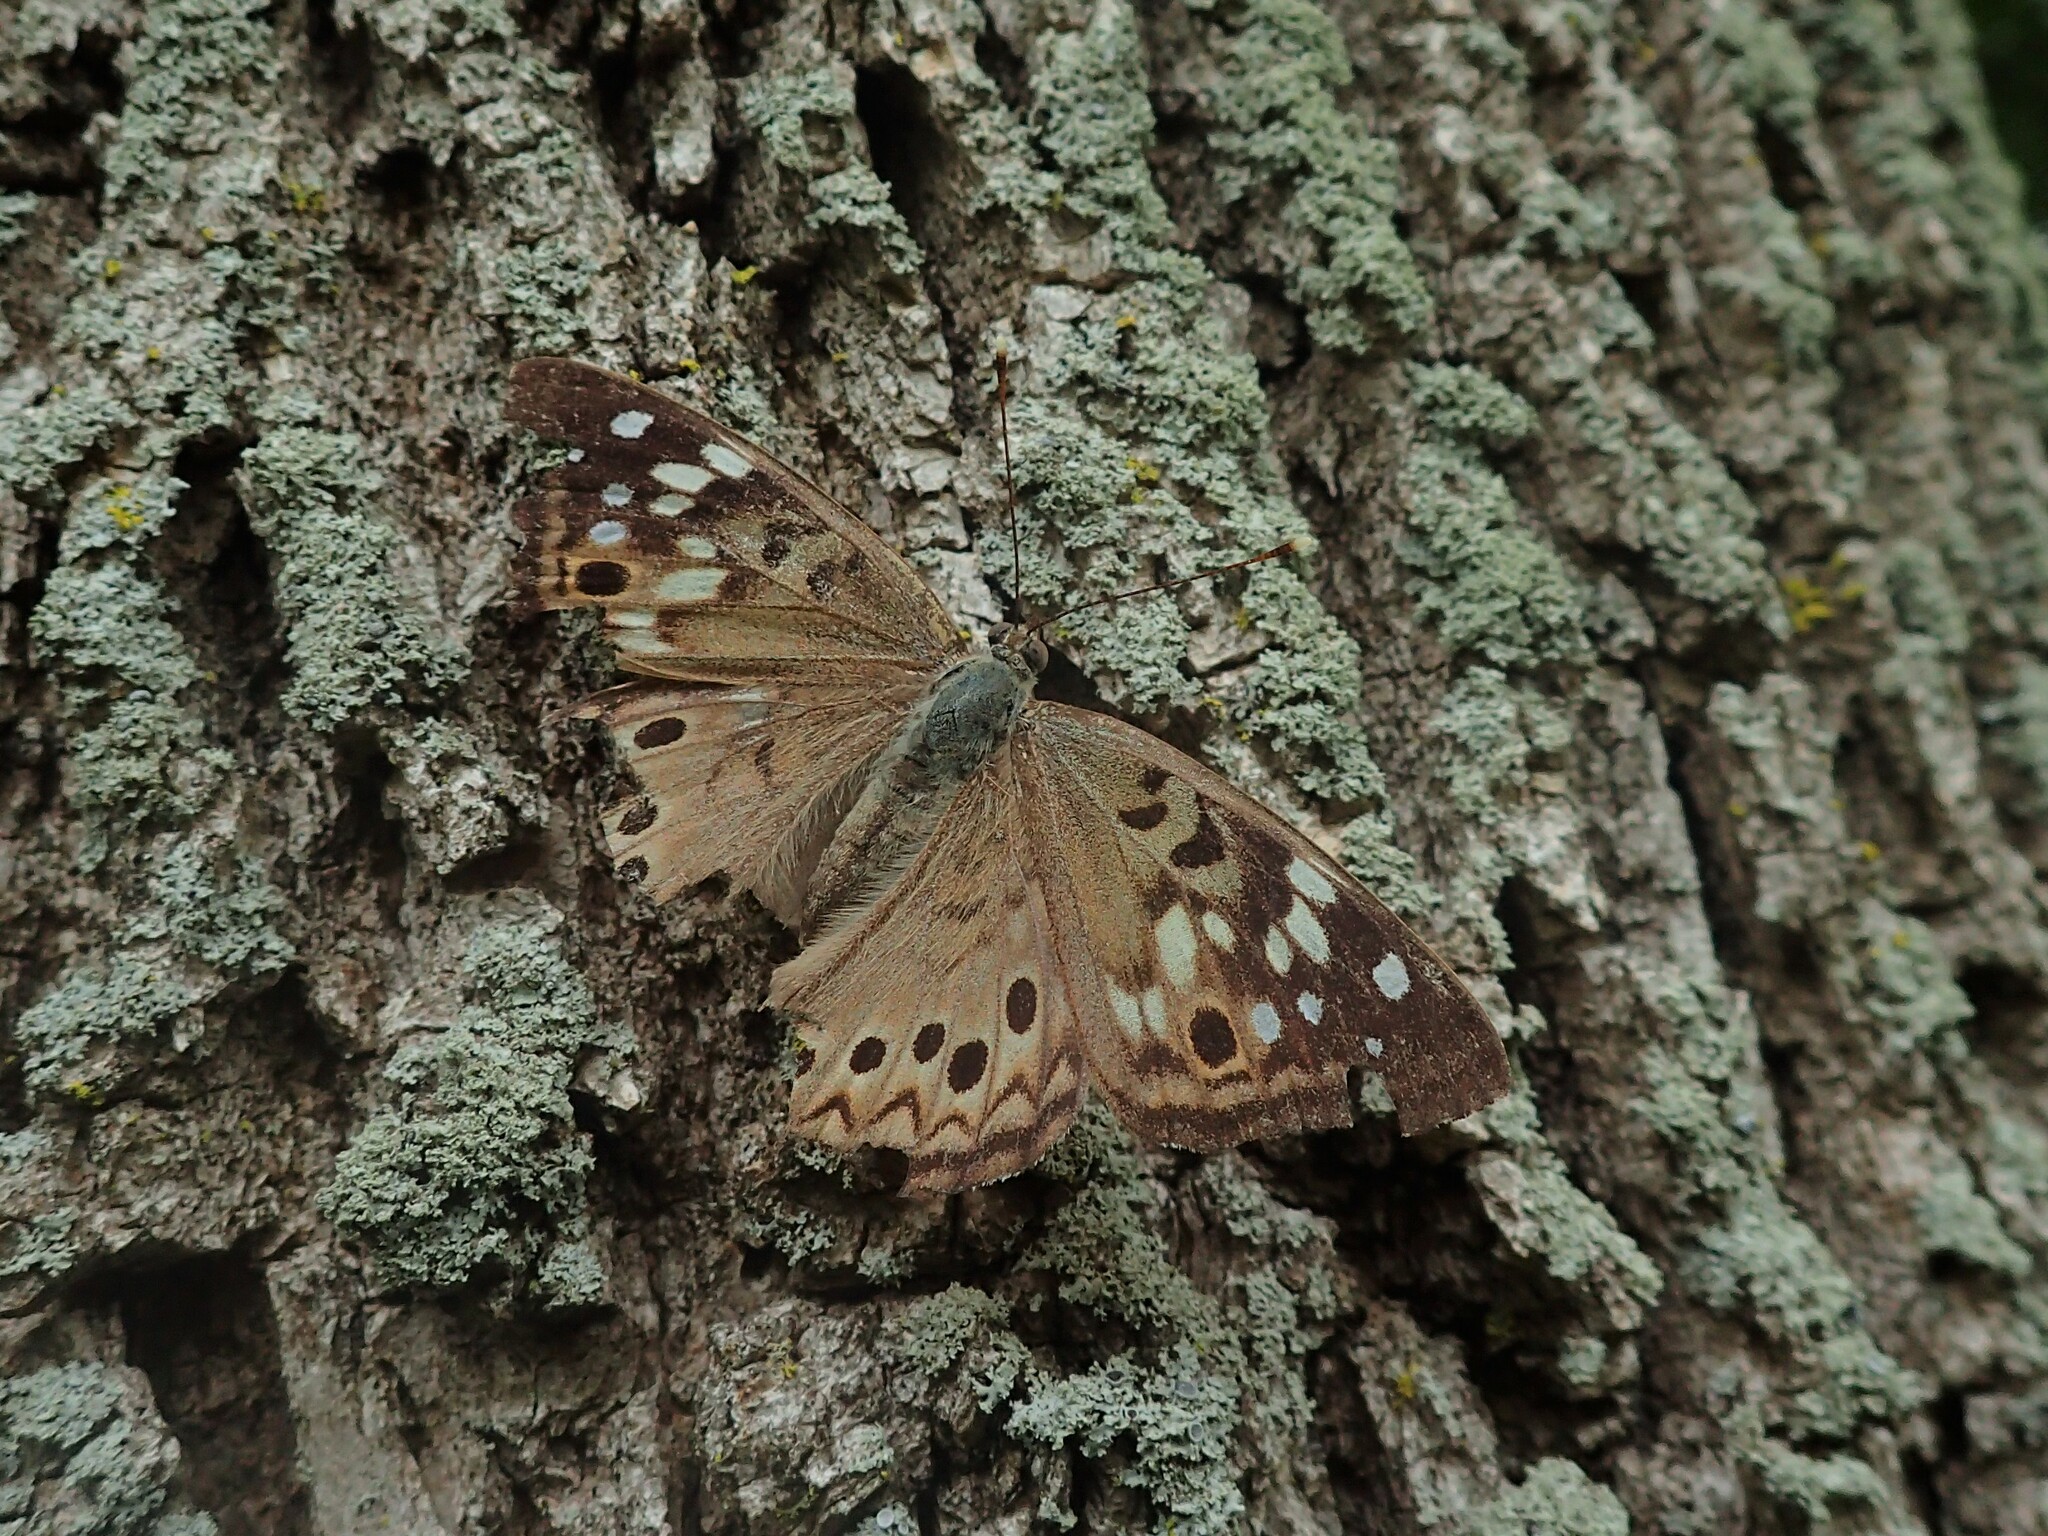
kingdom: Animalia
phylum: Arthropoda
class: Insecta
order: Lepidoptera
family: Nymphalidae
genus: Asterocampa
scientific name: Asterocampa celtis
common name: Hackberry emperor
